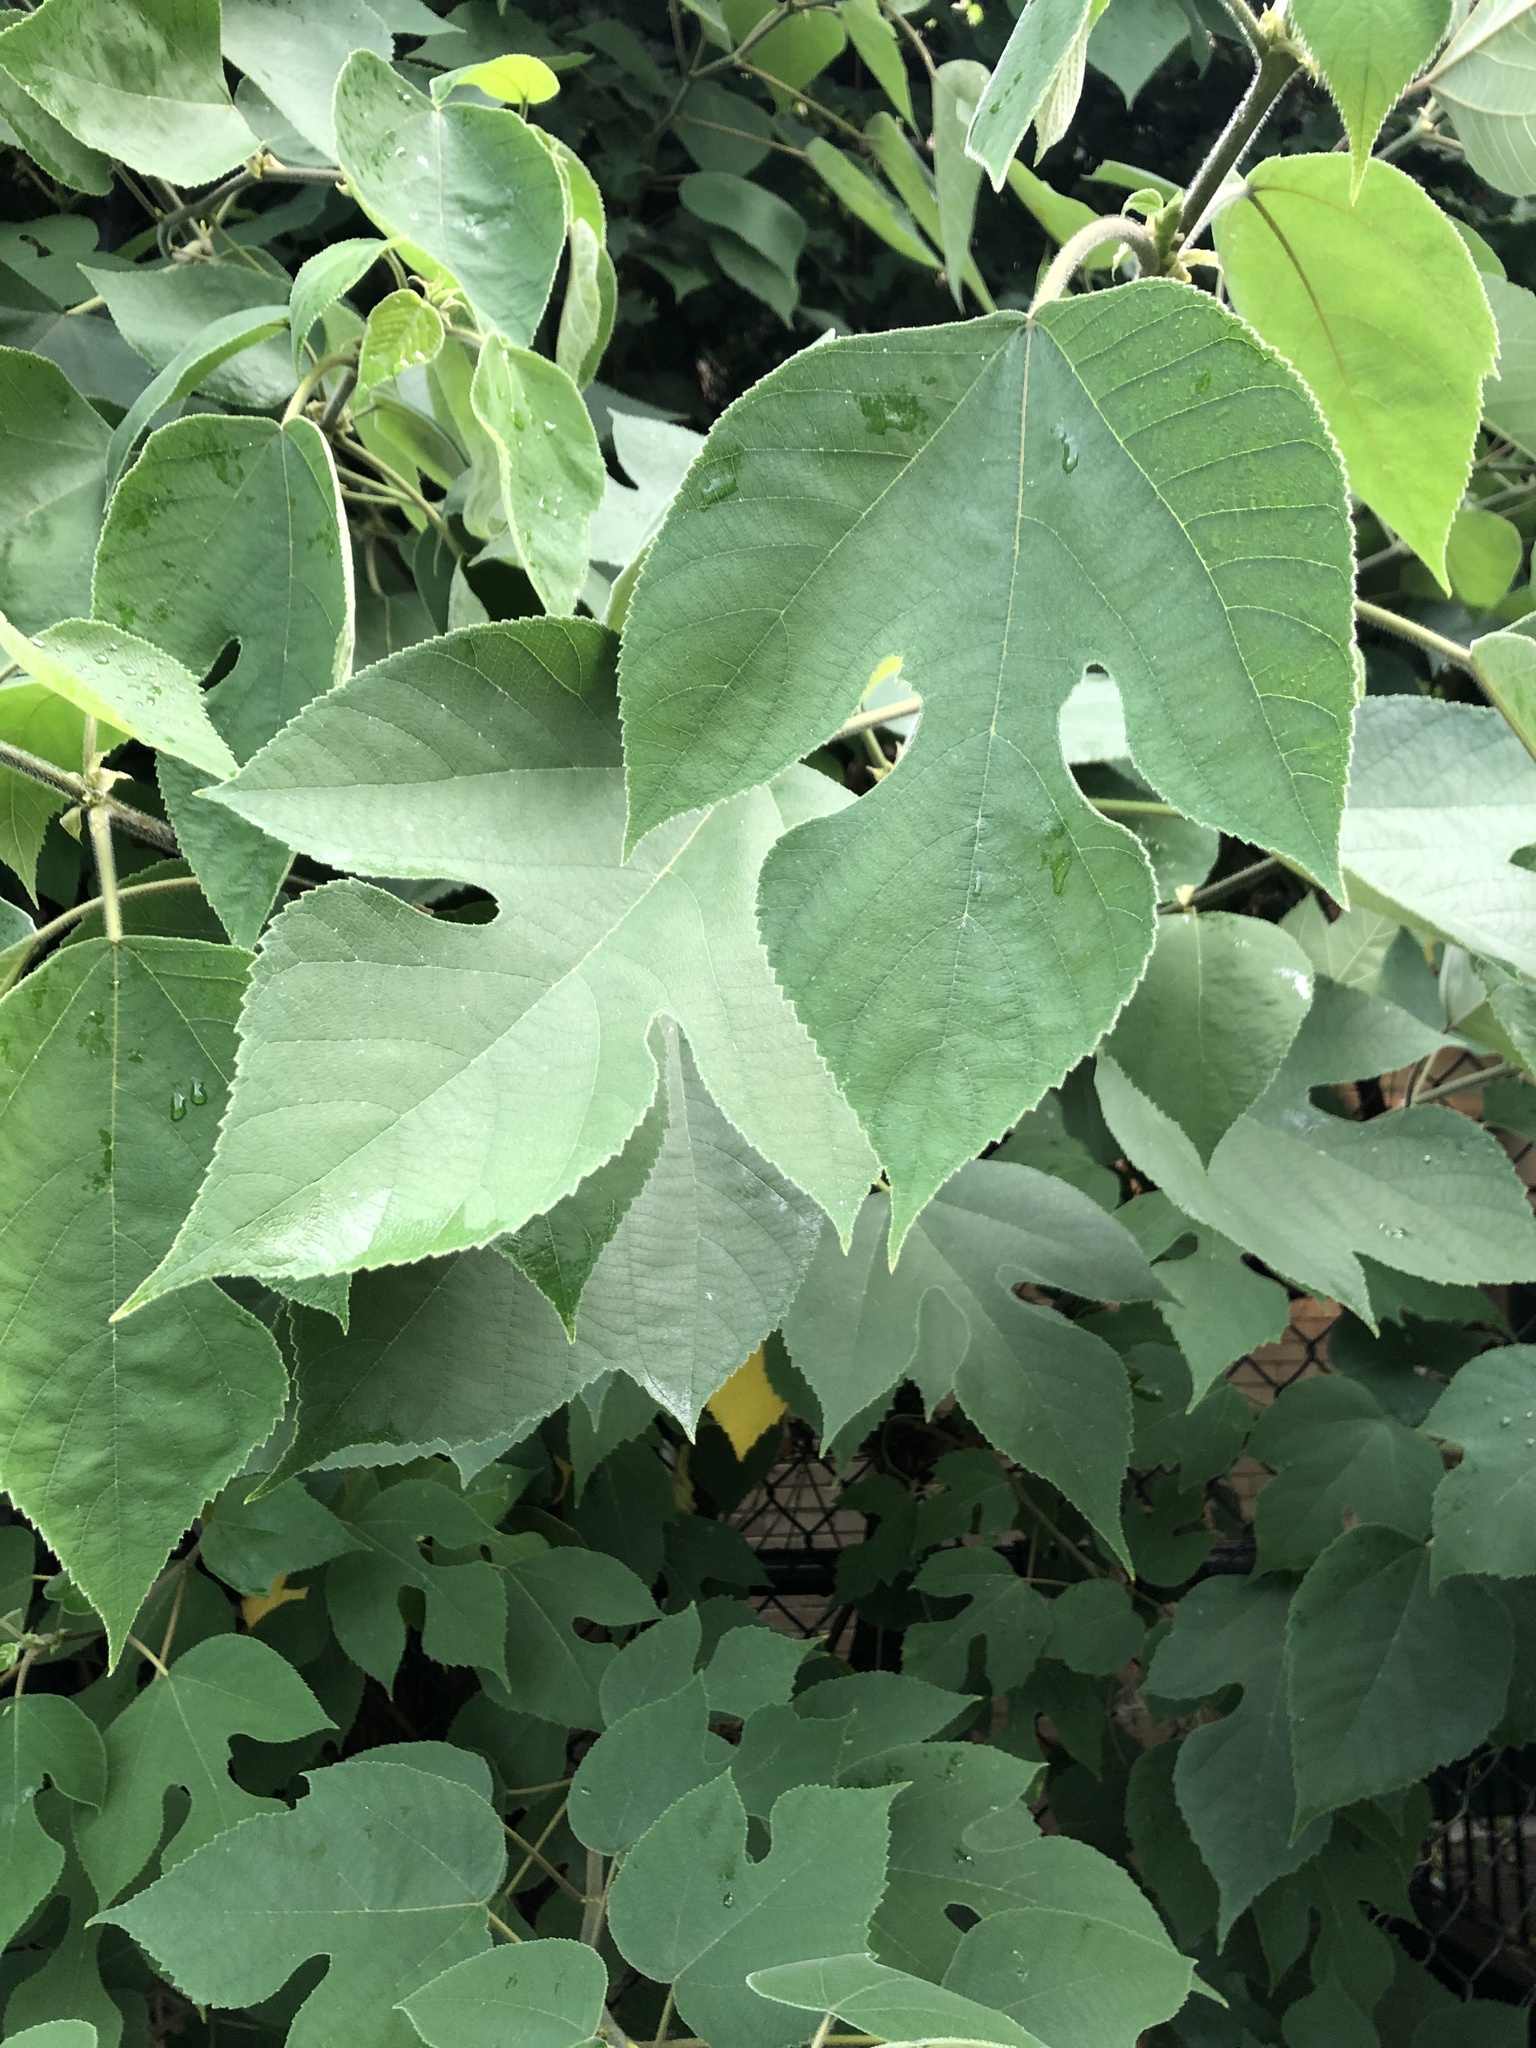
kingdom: Plantae
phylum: Tracheophyta
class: Magnoliopsida
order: Rosales
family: Moraceae
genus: Broussonetia
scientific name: Broussonetia papyrifera
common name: Paper mulberry
